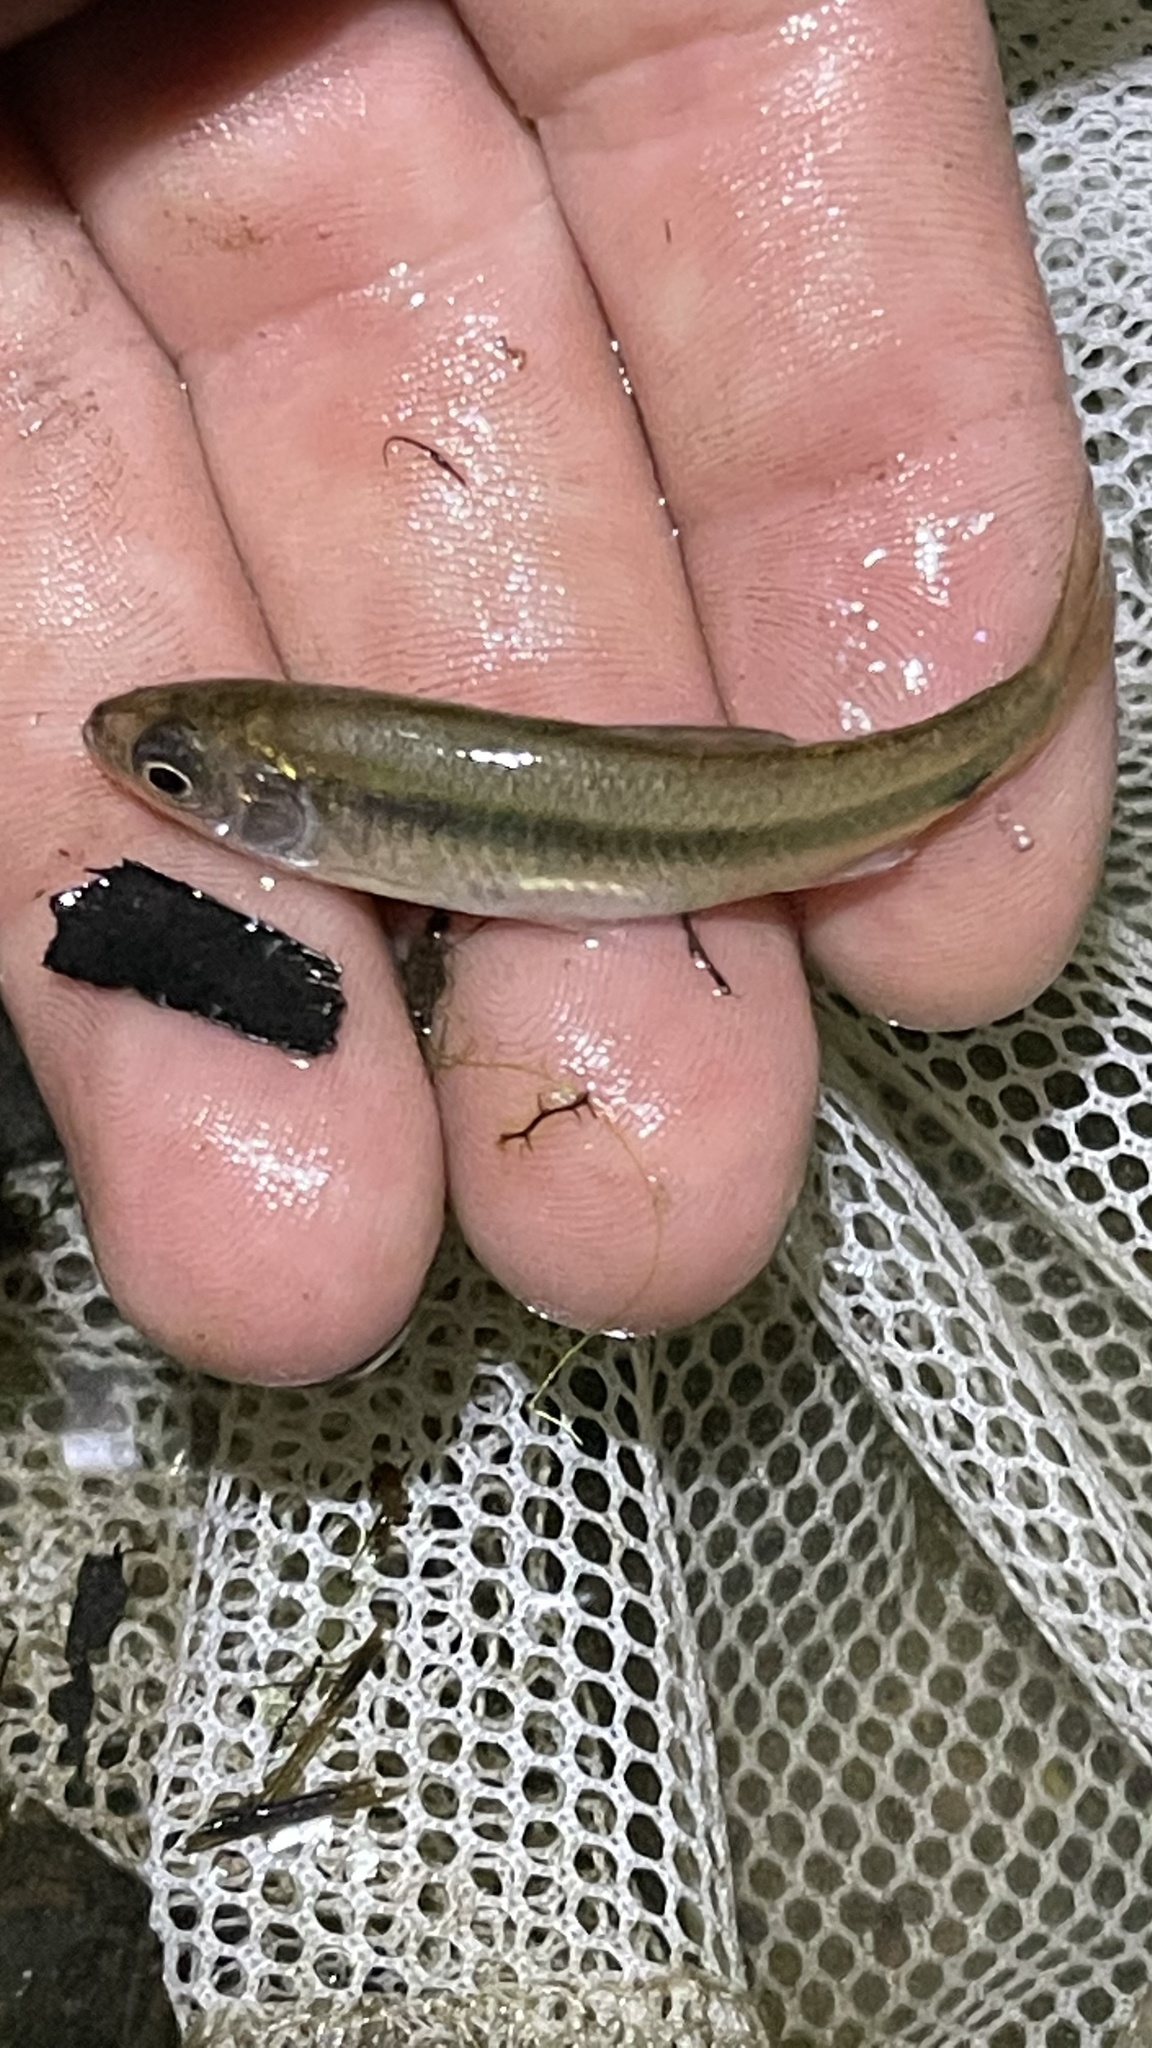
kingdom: Animalia
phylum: Chordata
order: Cypriniformes
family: Cyprinidae
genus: Luxilus
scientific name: Luxilus cornutus
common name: Common shiner
